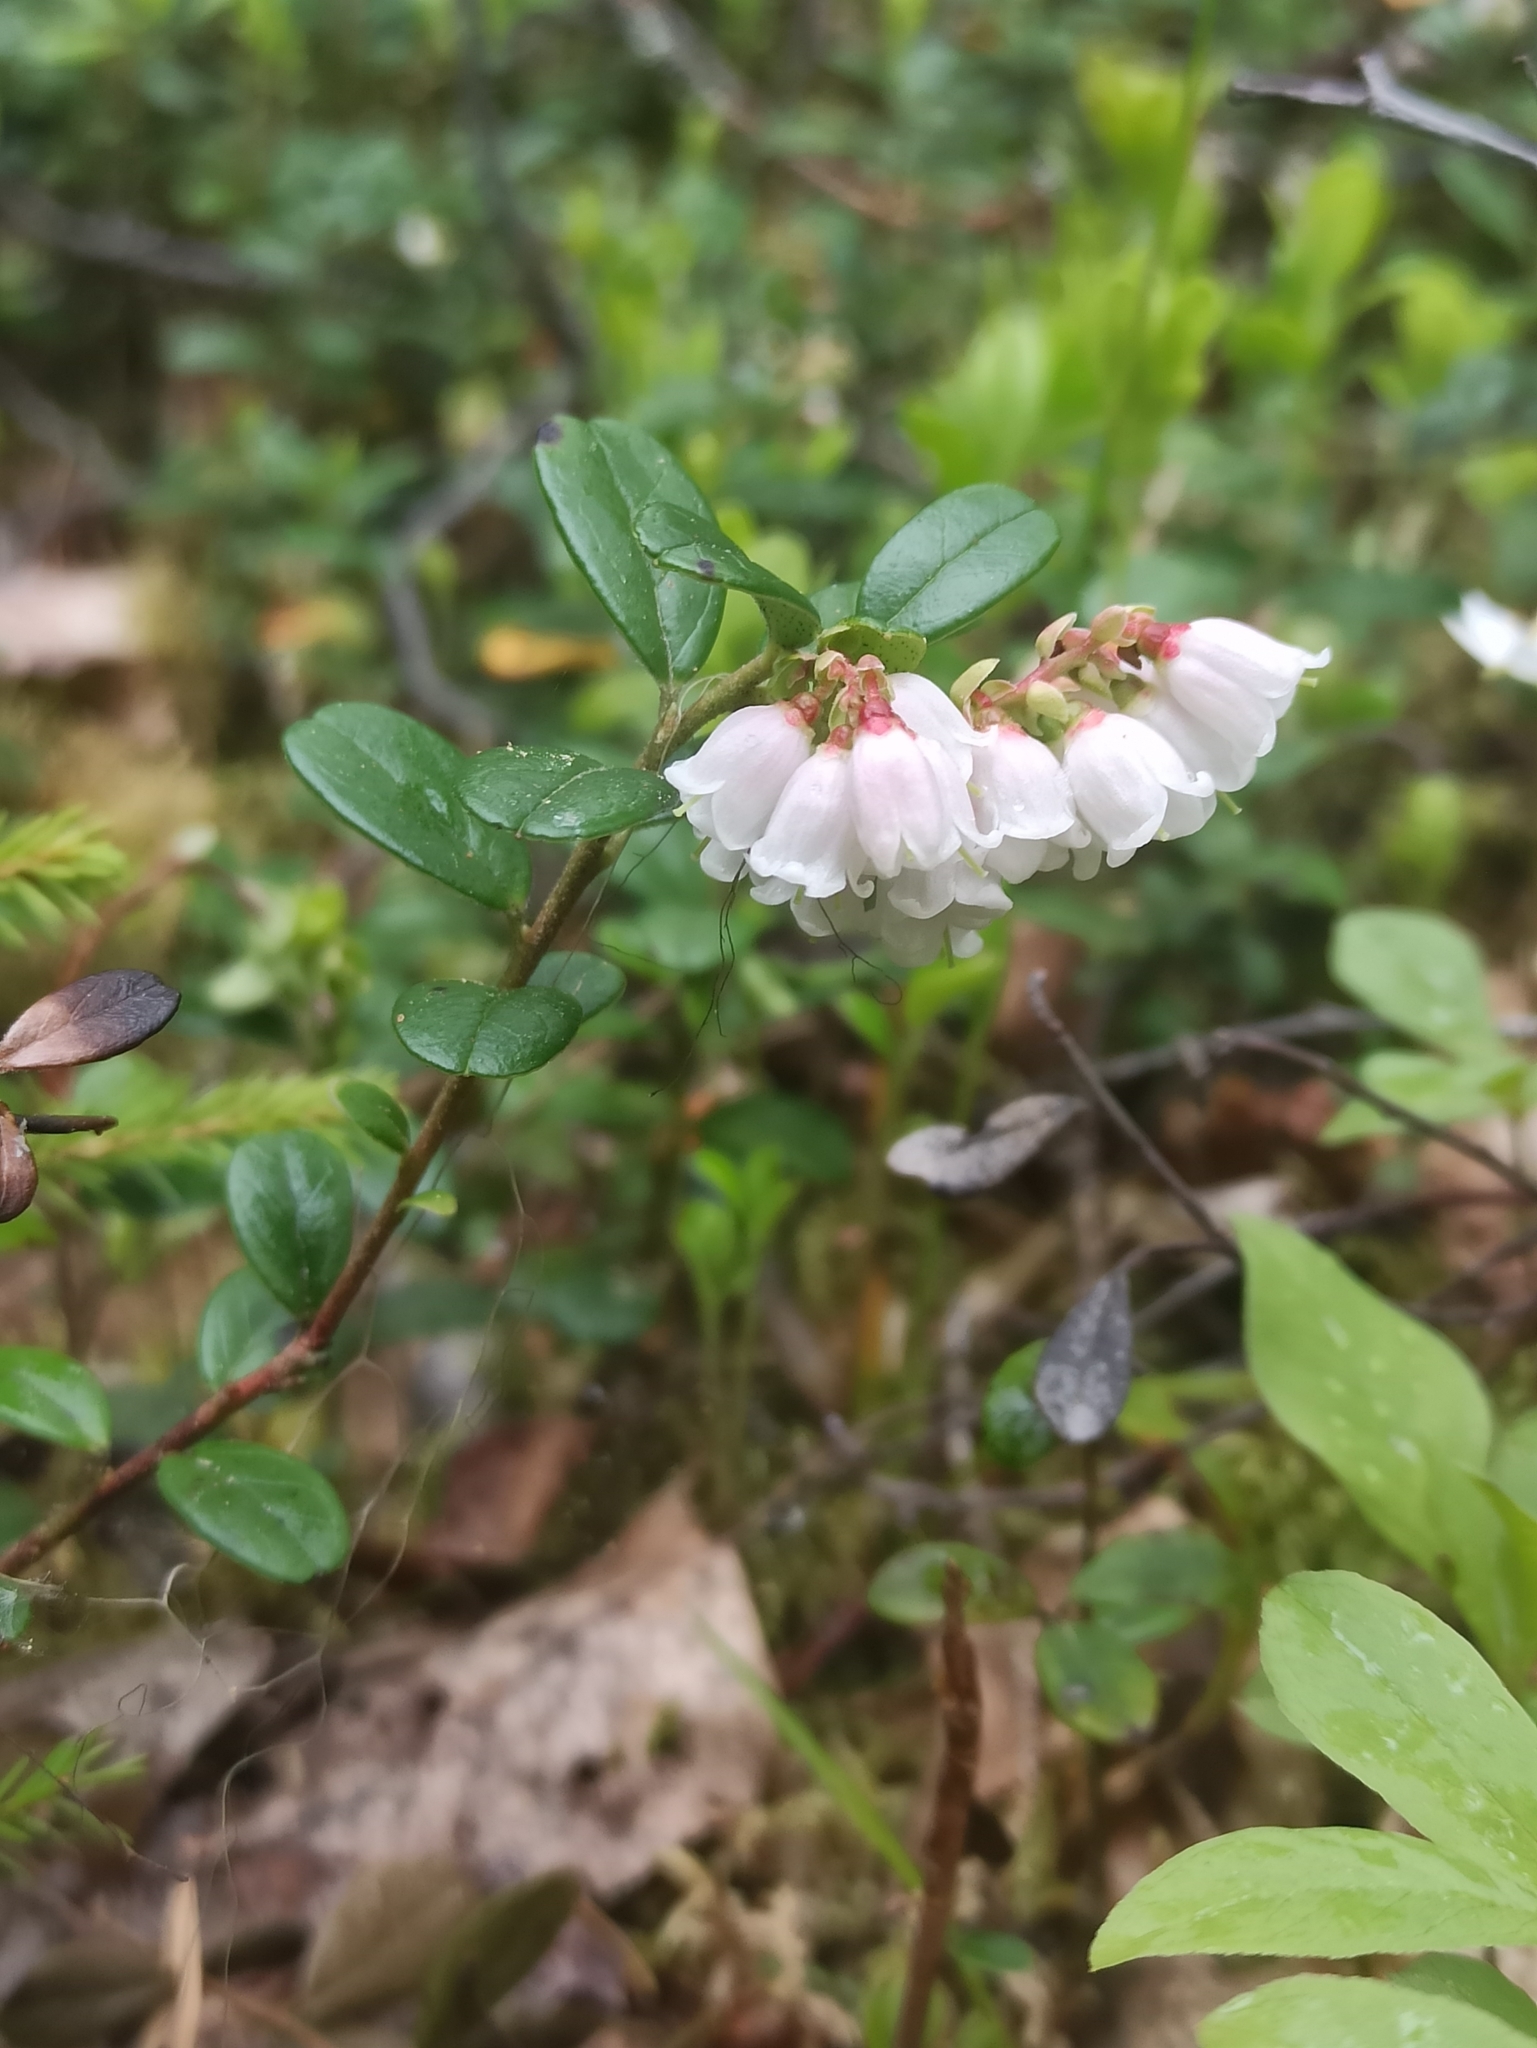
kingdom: Plantae
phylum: Tracheophyta
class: Magnoliopsida
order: Ericales
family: Ericaceae
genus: Vaccinium
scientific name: Vaccinium vitis-idaea
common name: Cowberry
